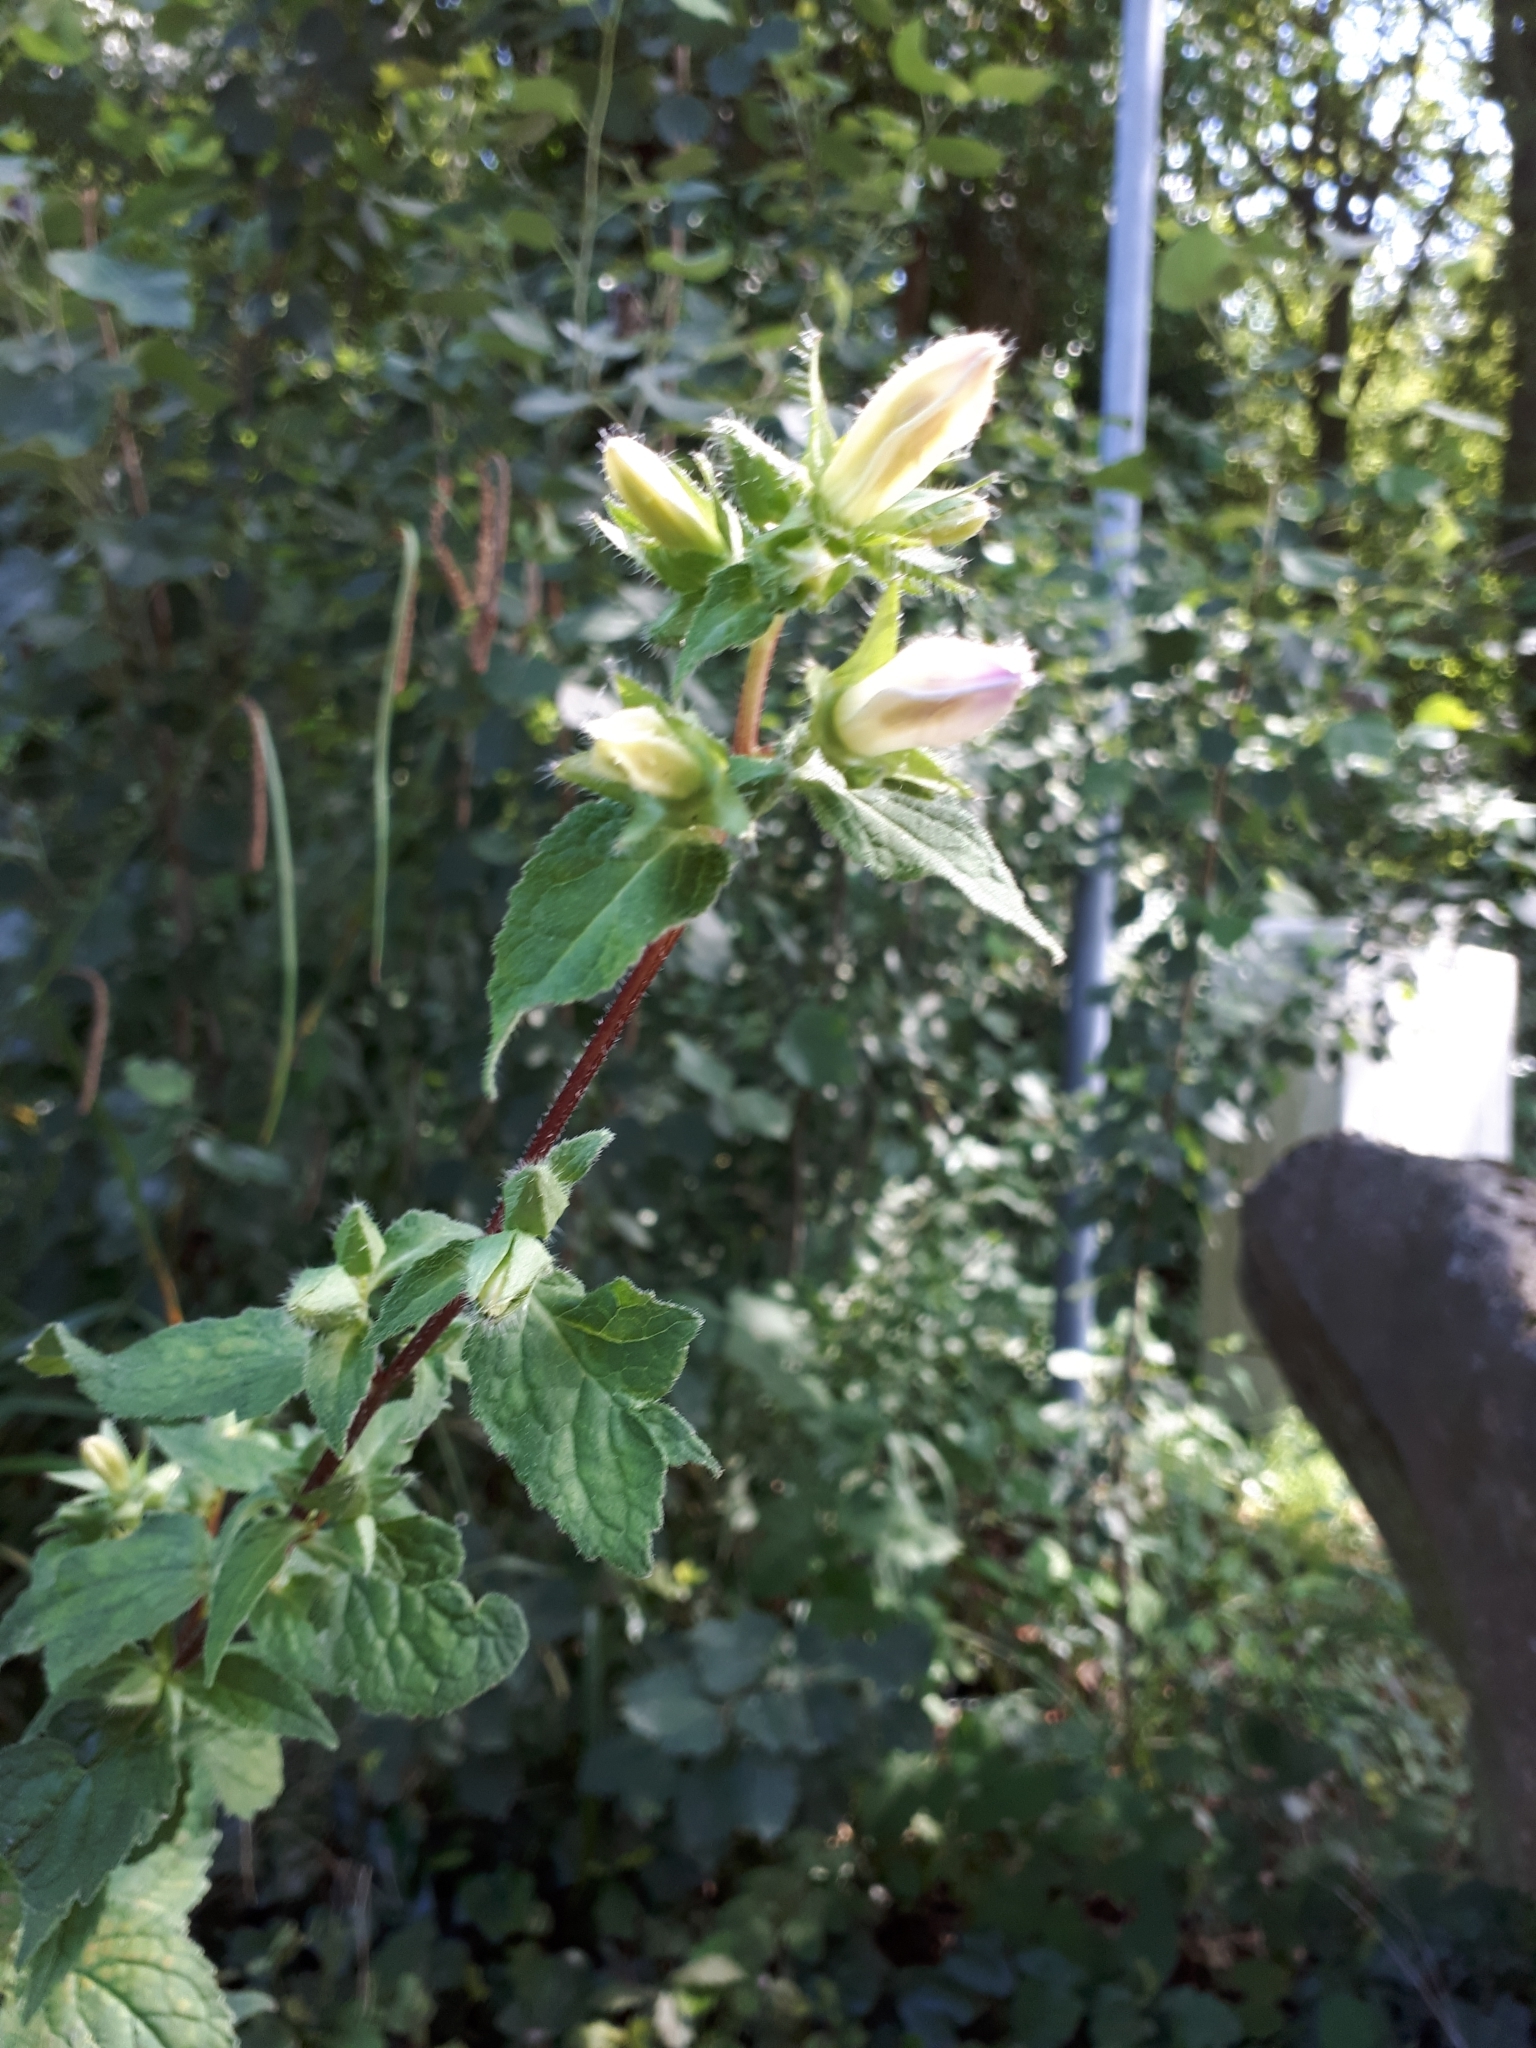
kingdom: Plantae
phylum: Tracheophyta
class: Magnoliopsida
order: Asterales
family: Campanulaceae
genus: Campanula
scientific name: Campanula trachelium
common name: Nettle-leaved bellflower
